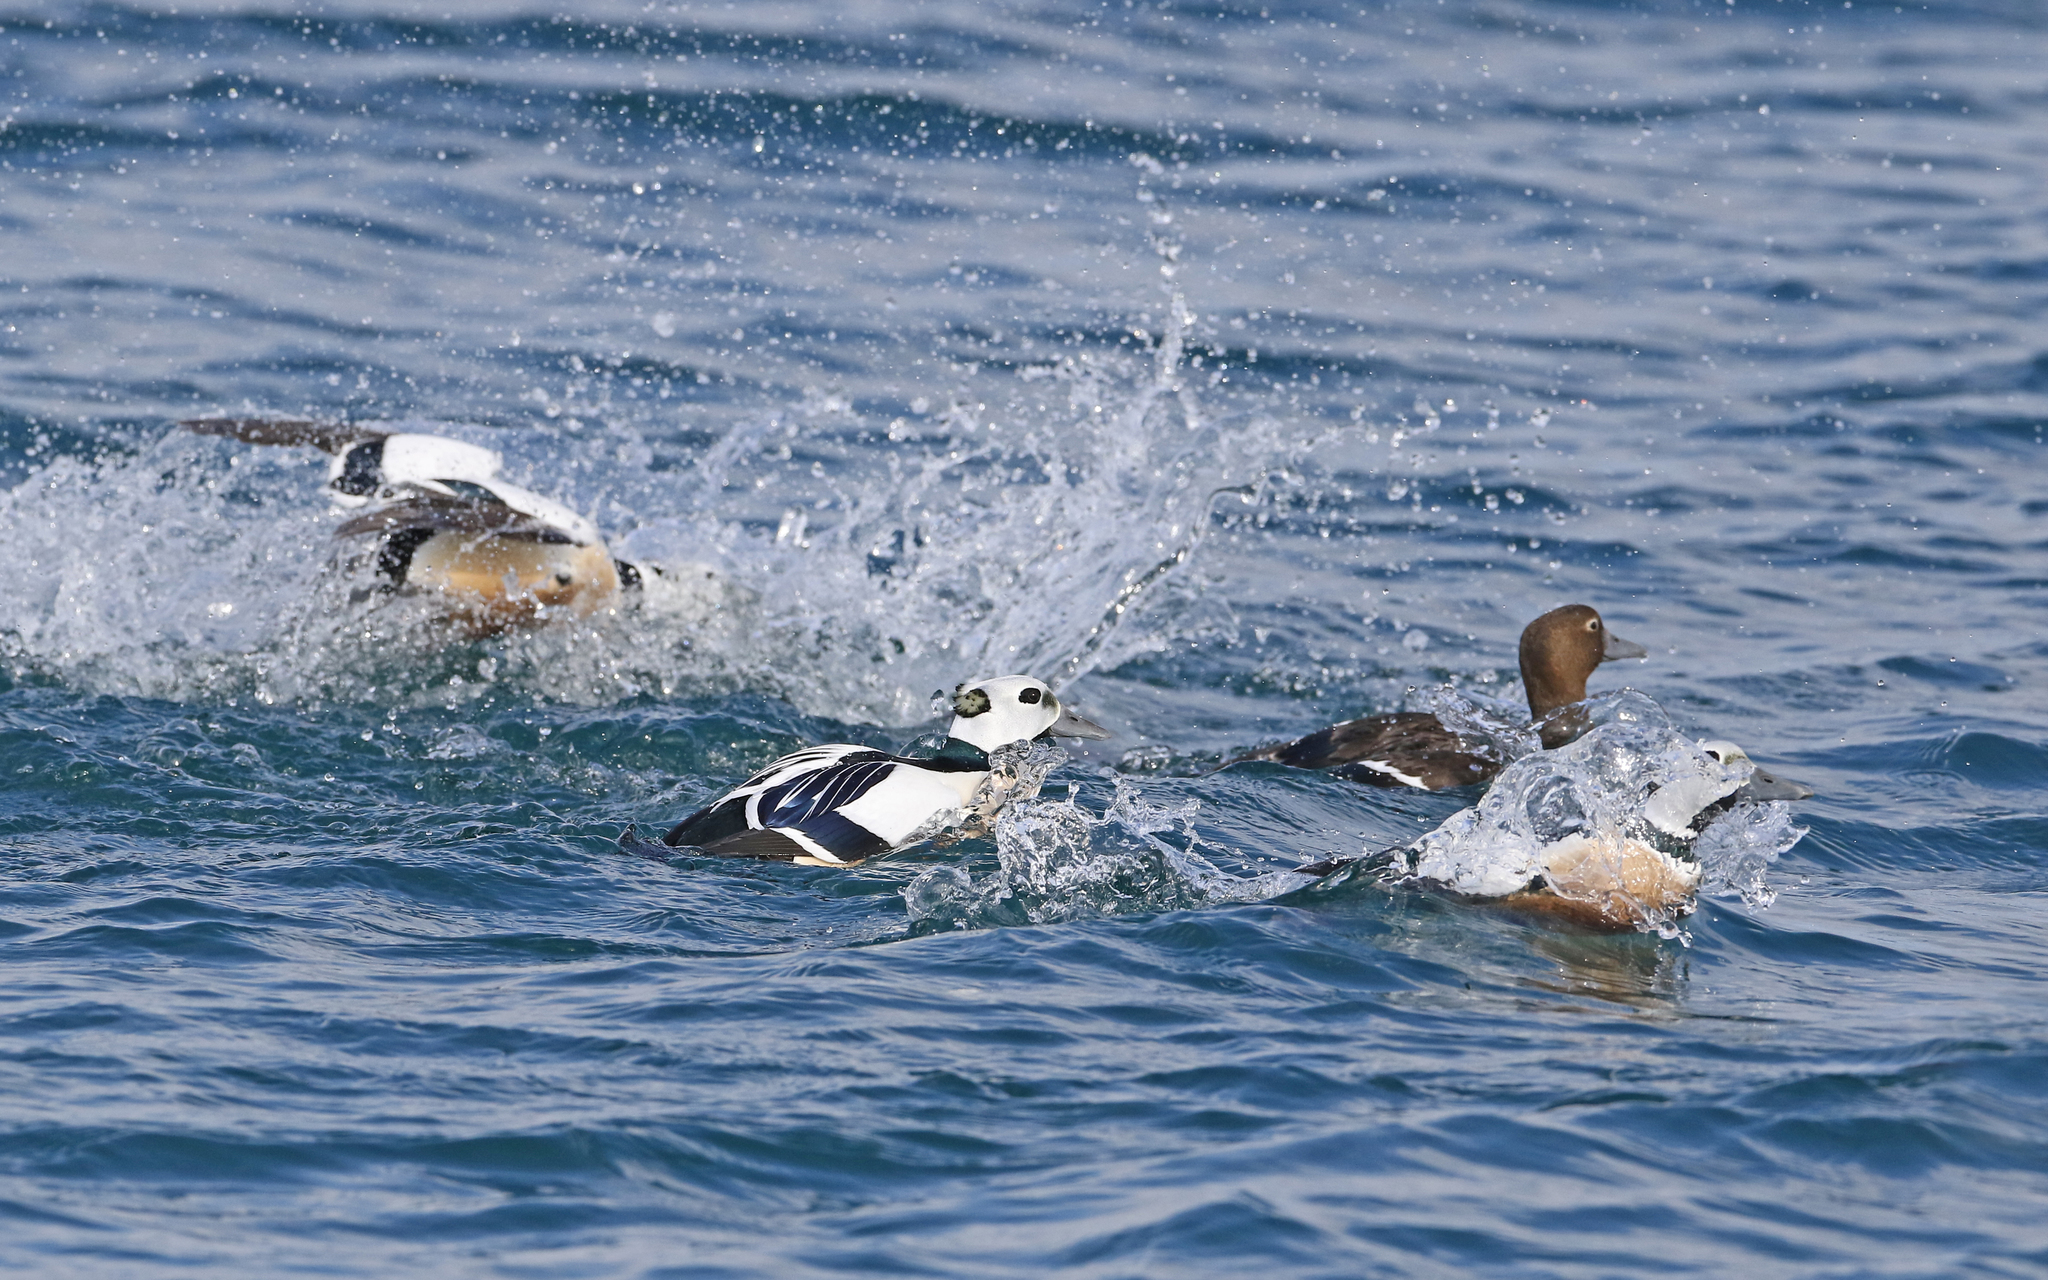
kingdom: Animalia
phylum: Chordata
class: Aves
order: Anseriformes
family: Anatidae
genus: Polysticta
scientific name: Polysticta stelleri
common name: Steller's eider
